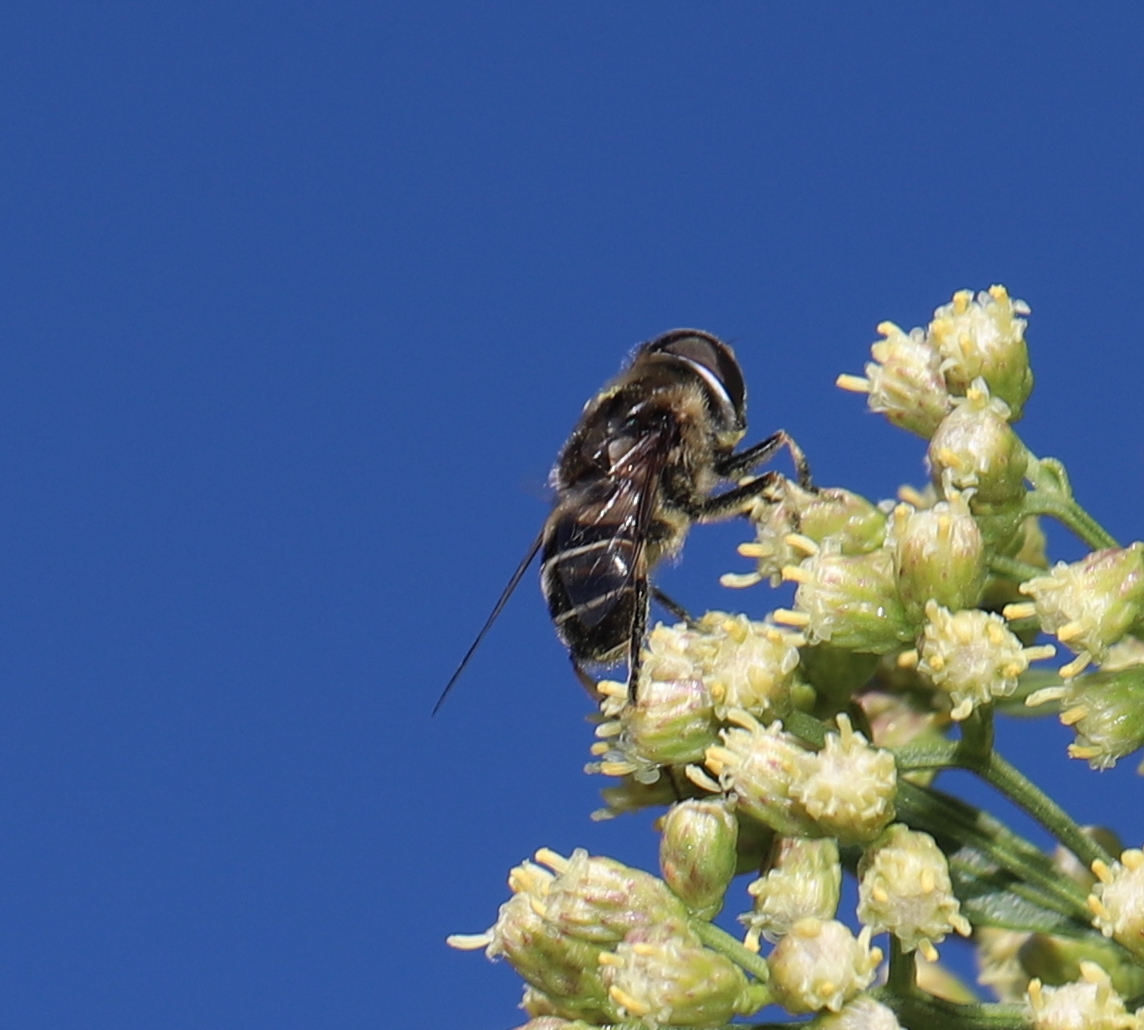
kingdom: Animalia
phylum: Arthropoda
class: Insecta
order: Diptera
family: Syrphidae
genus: Eristalis
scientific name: Eristalis dimidiata
